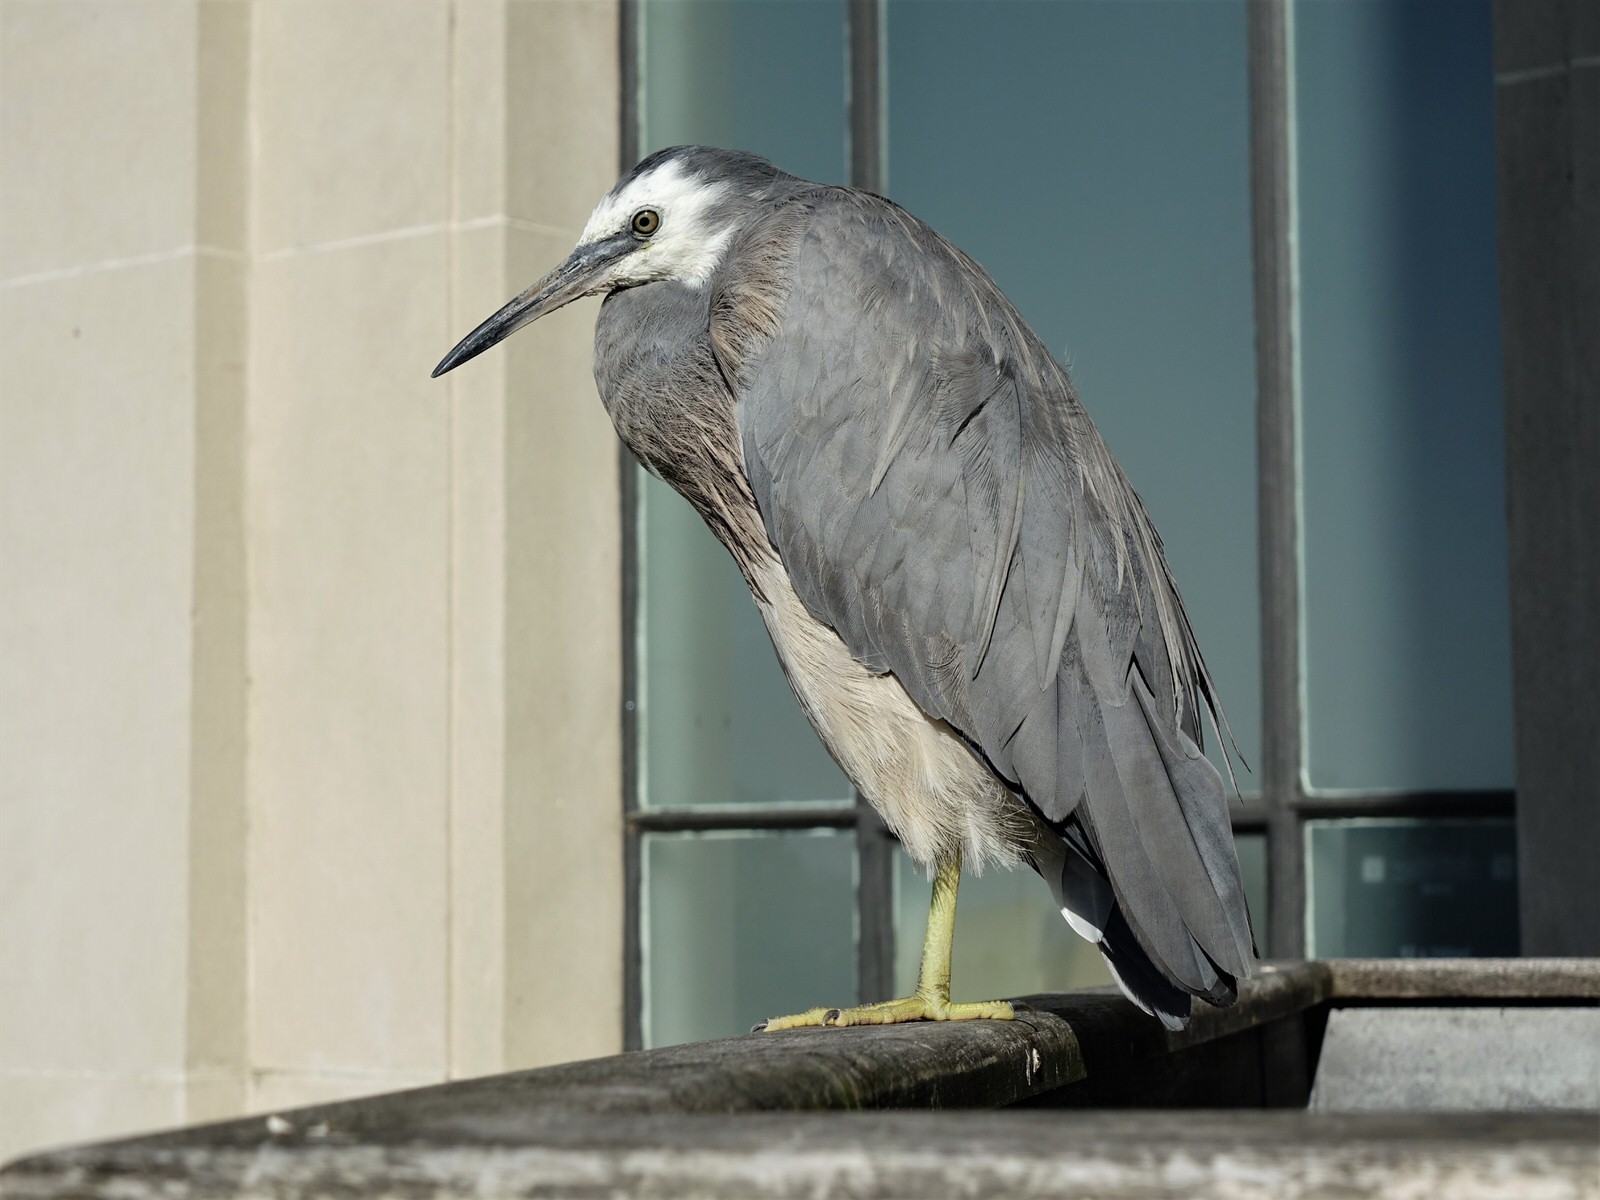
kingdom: Animalia
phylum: Chordata
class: Aves
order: Pelecaniformes
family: Ardeidae
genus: Egretta
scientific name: Egretta novaehollandiae
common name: White-faced heron
